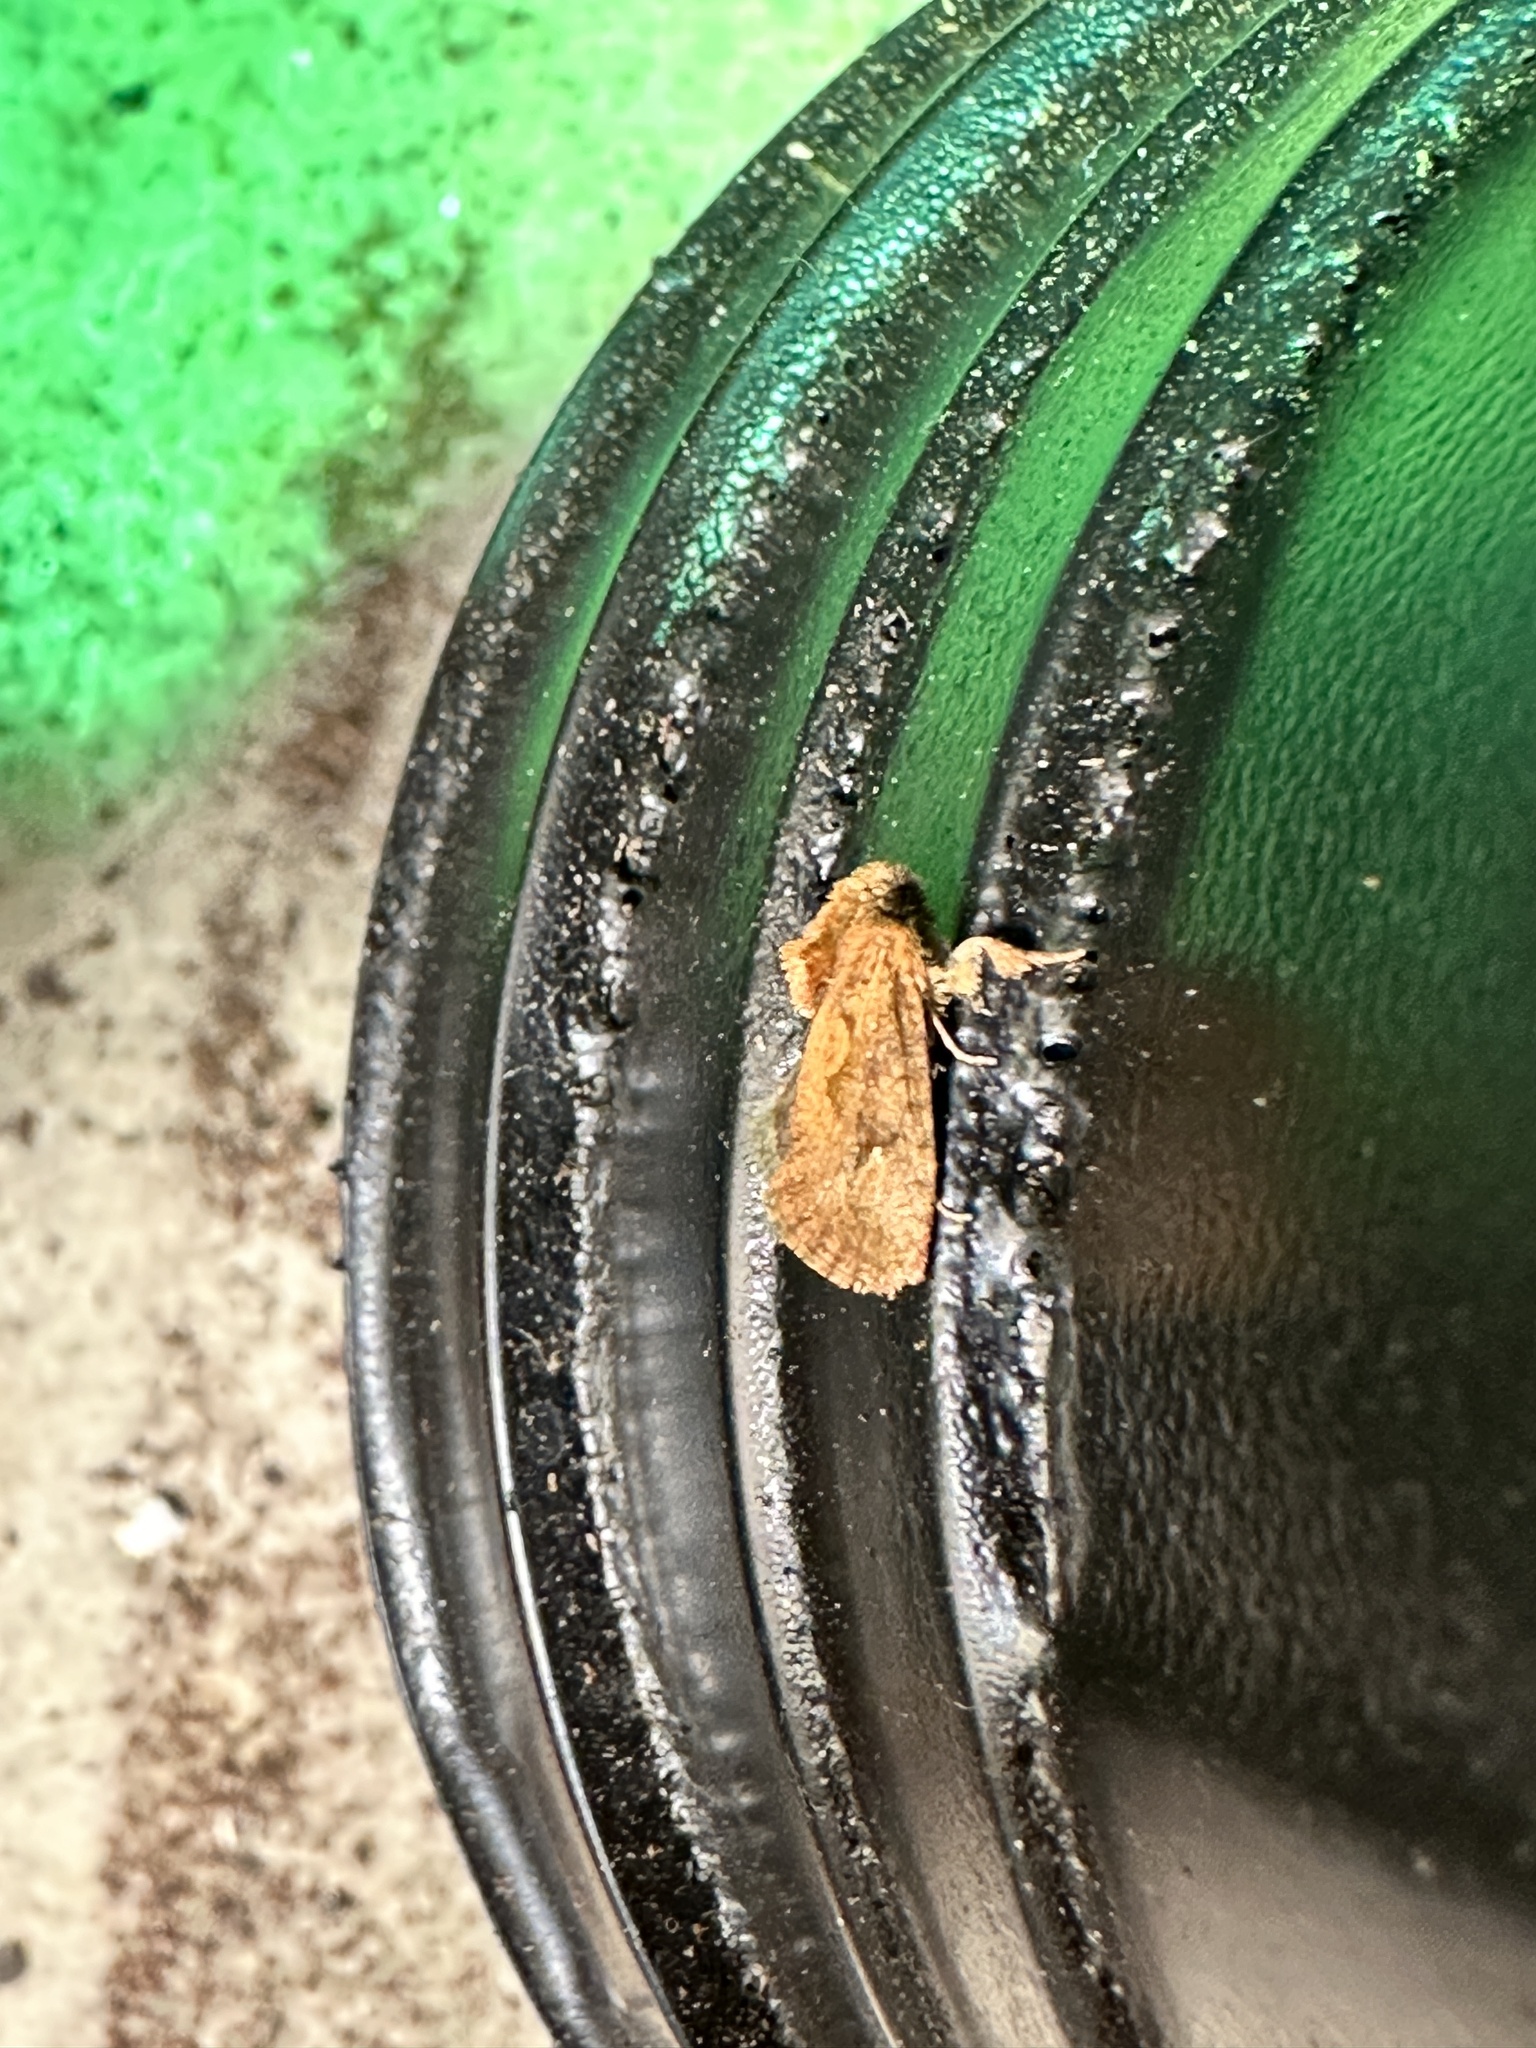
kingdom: Animalia
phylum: Arthropoda
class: Insecta
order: Lepidoptera
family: Tineidae
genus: Acrolophus
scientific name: Acrolophus walsinghami
